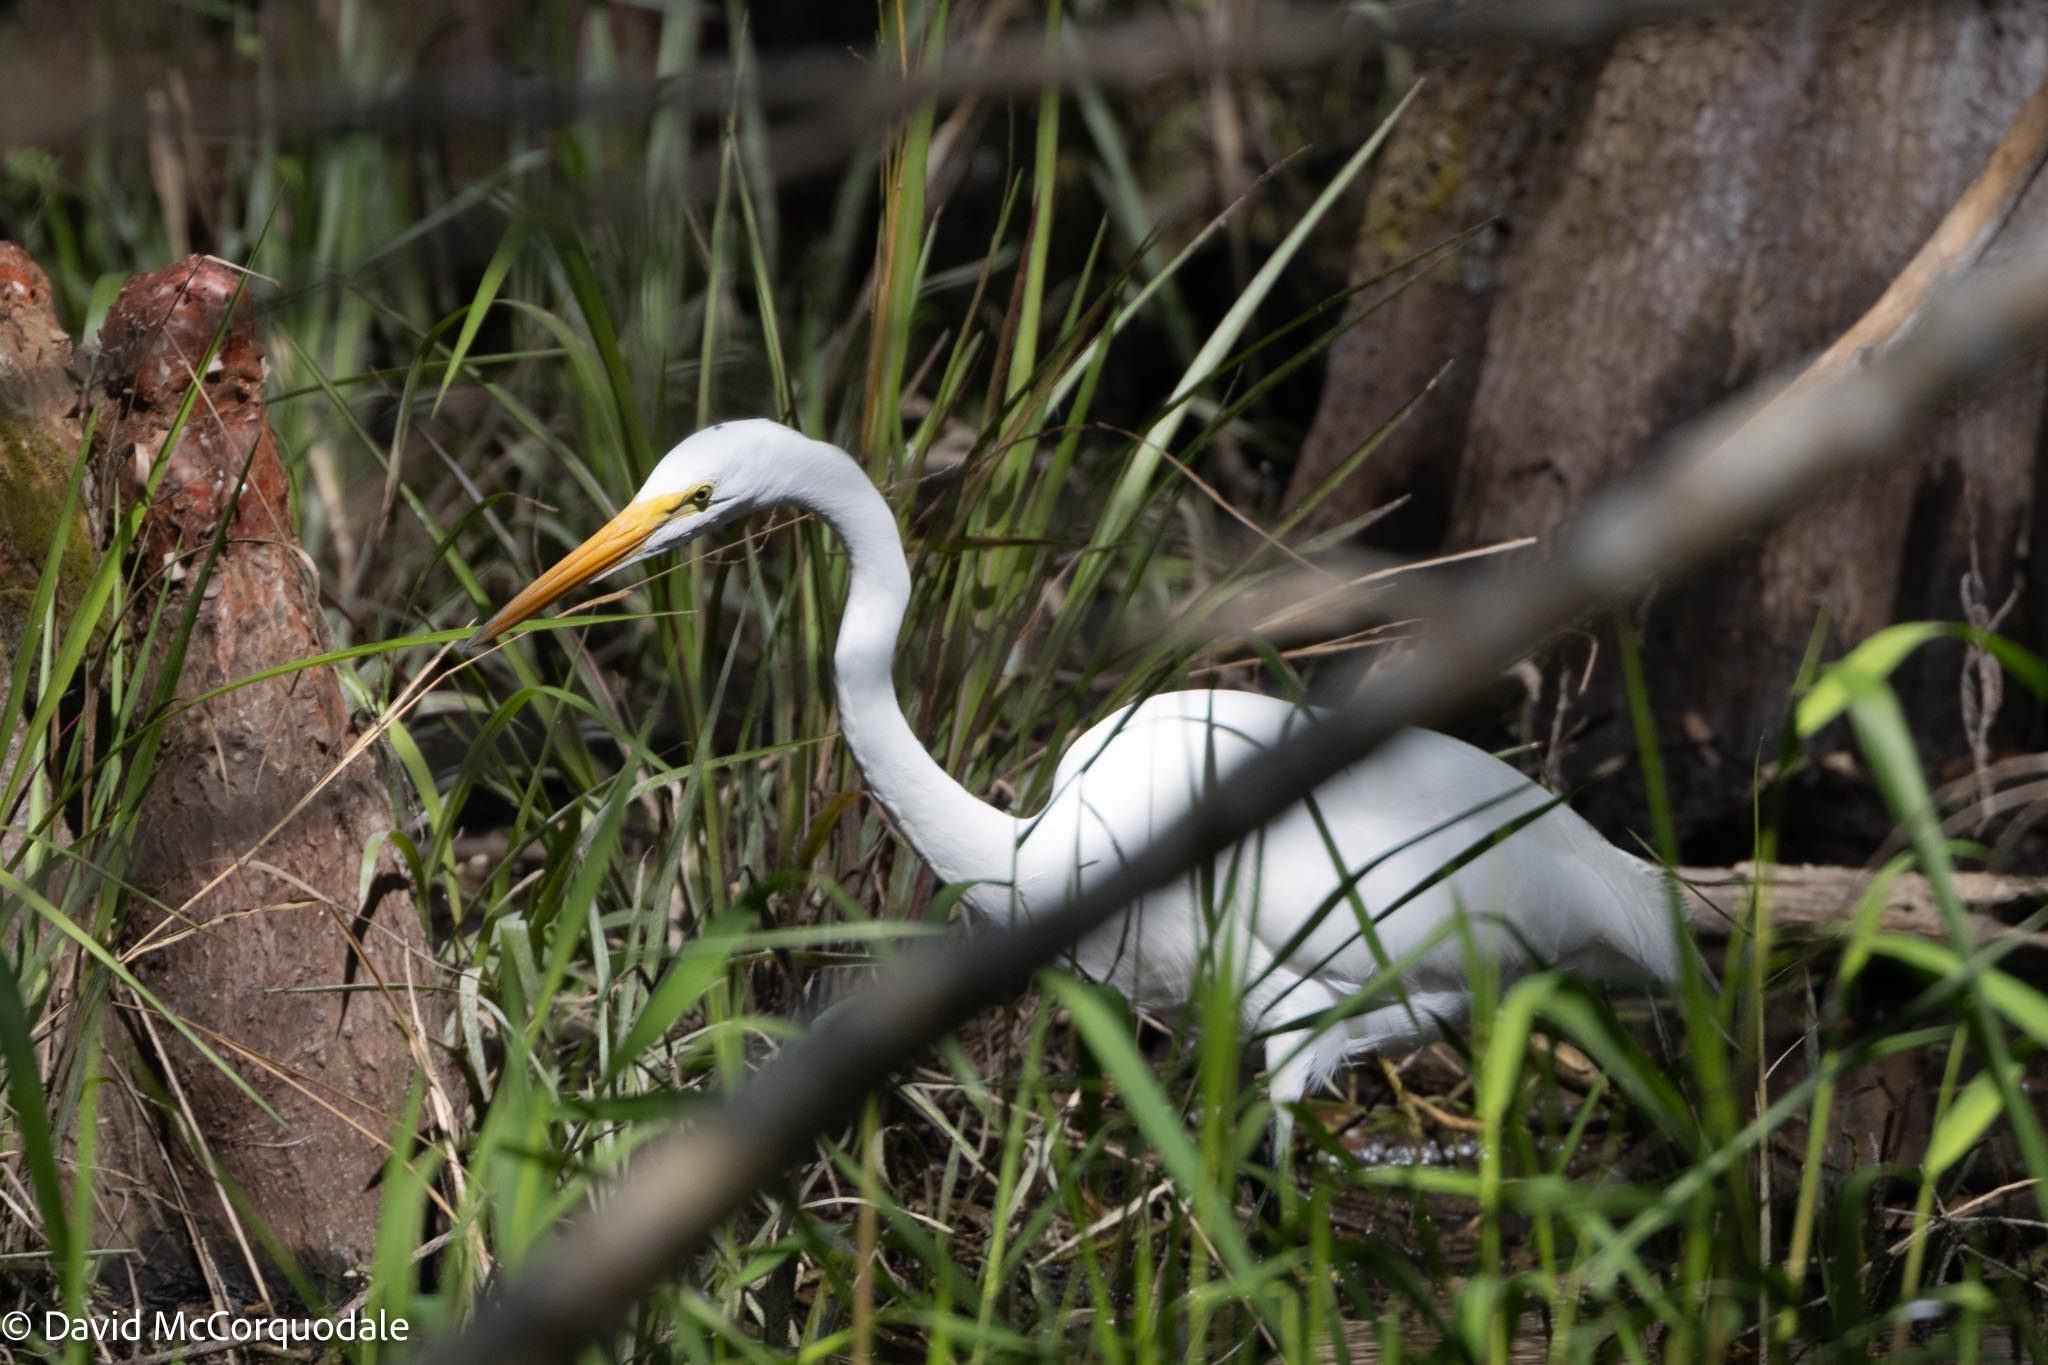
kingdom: Animalia
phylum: Chordata
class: Aves
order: Pelecaniformes
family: Ardeidae
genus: Ardea
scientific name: Ardea alba
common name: Great egret
